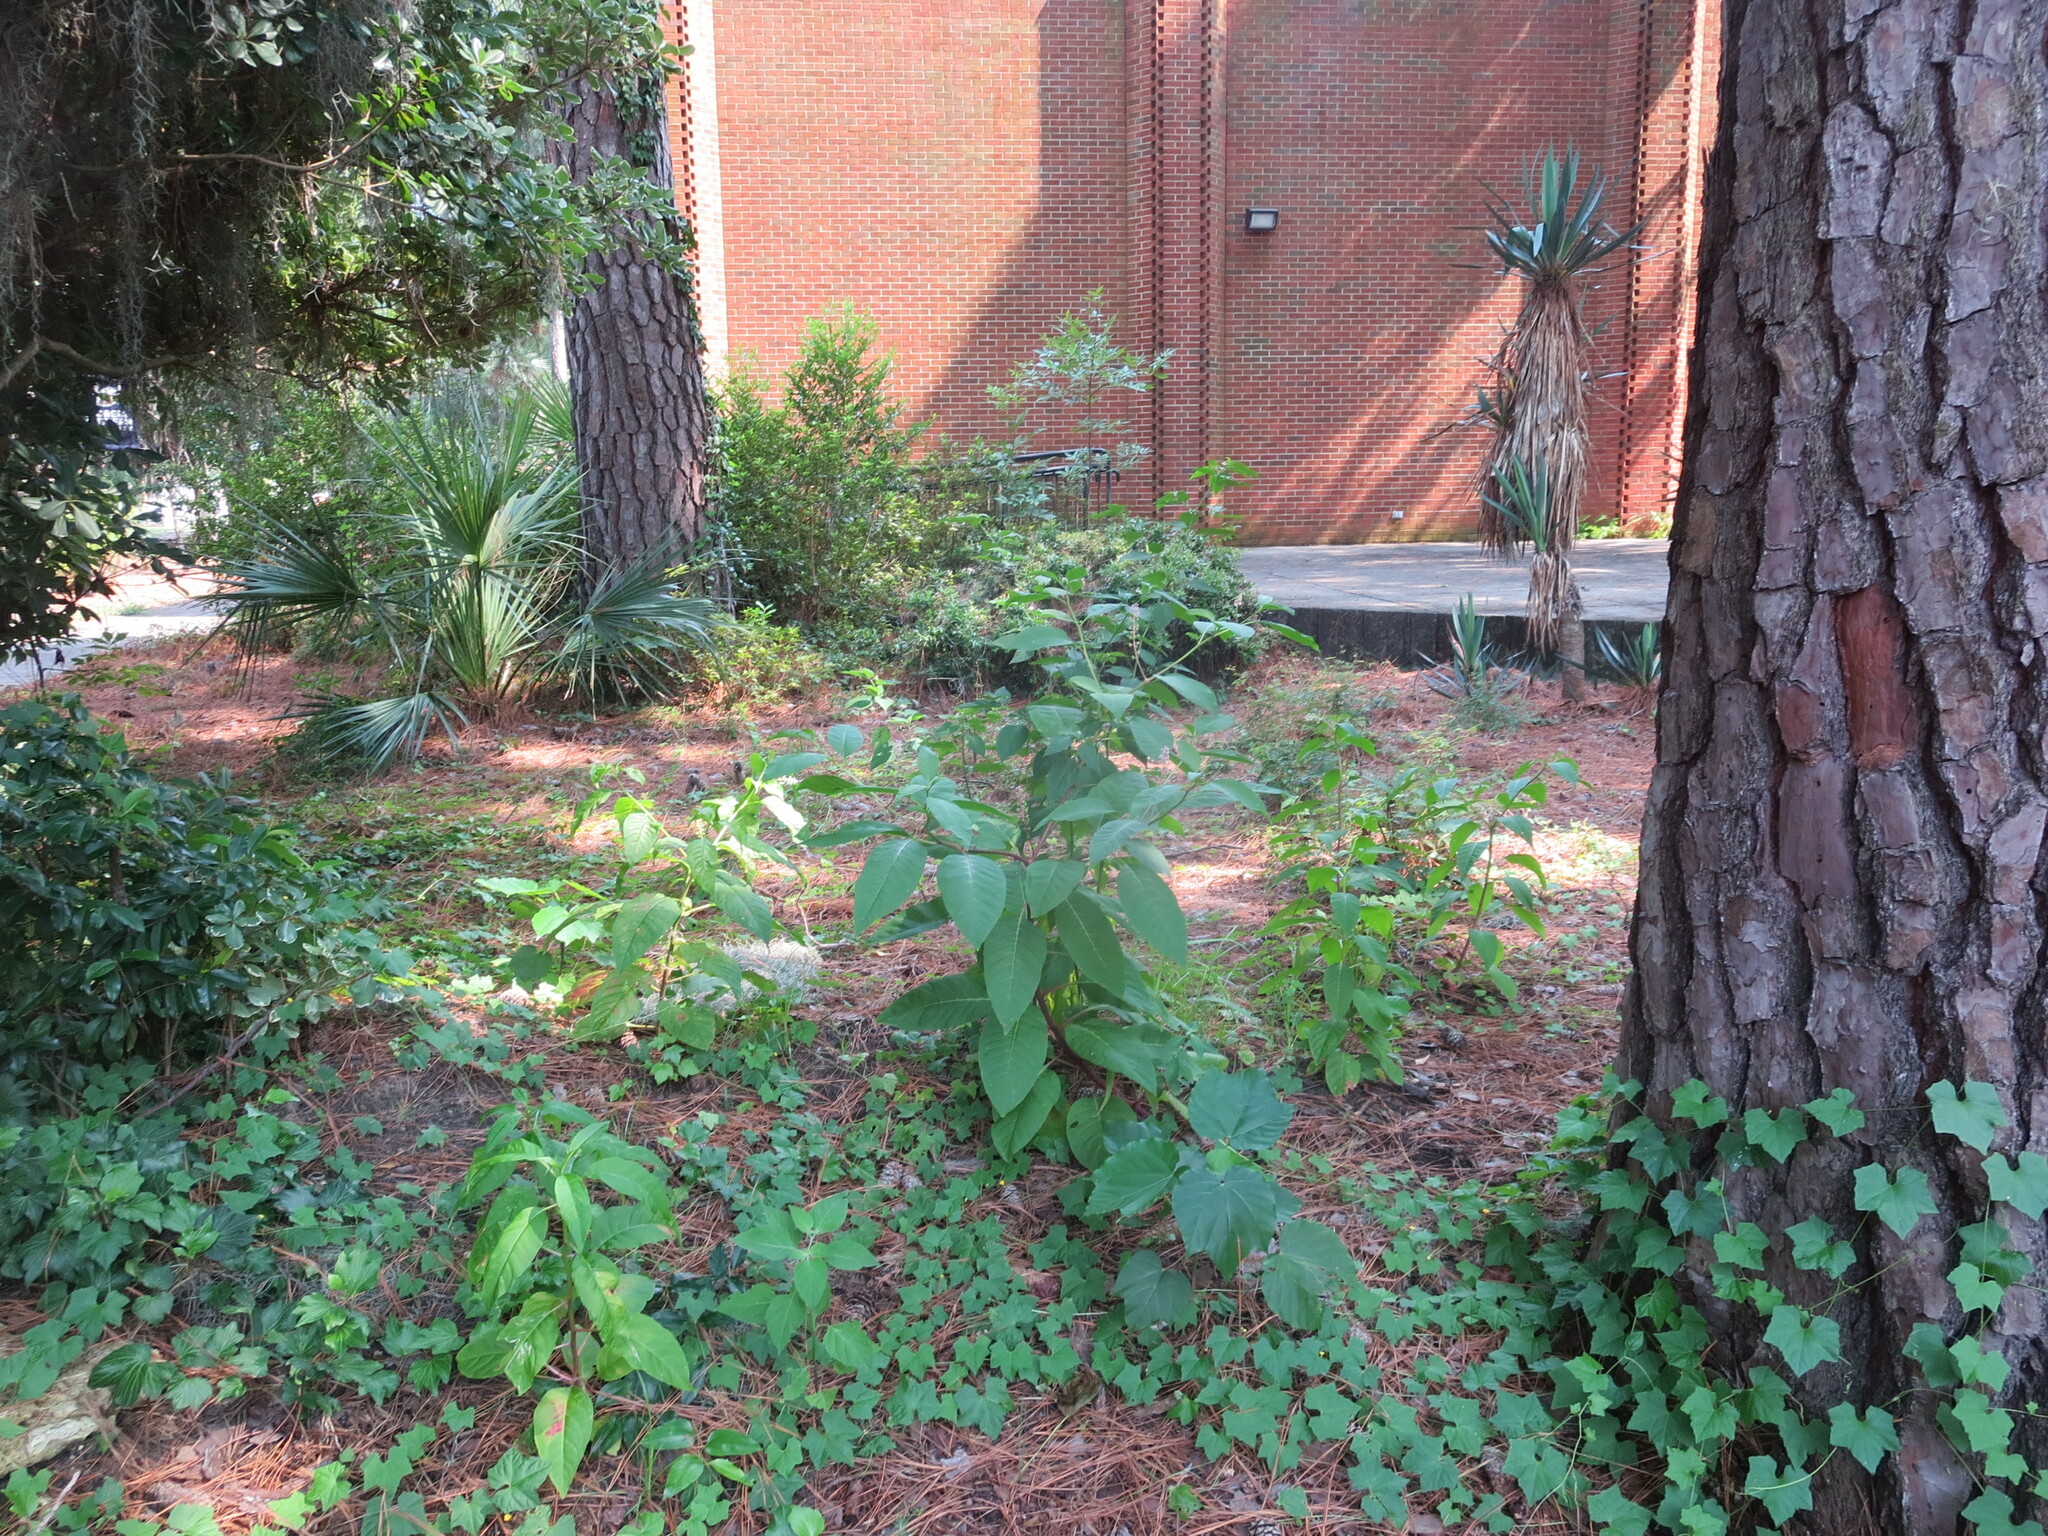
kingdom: Plantae
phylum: Tracheophyta
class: Magnoliopsida
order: Caryophyllales
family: Phytolaccaceae
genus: Phytolacca
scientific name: Phytolacca americana
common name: American pokeweed
